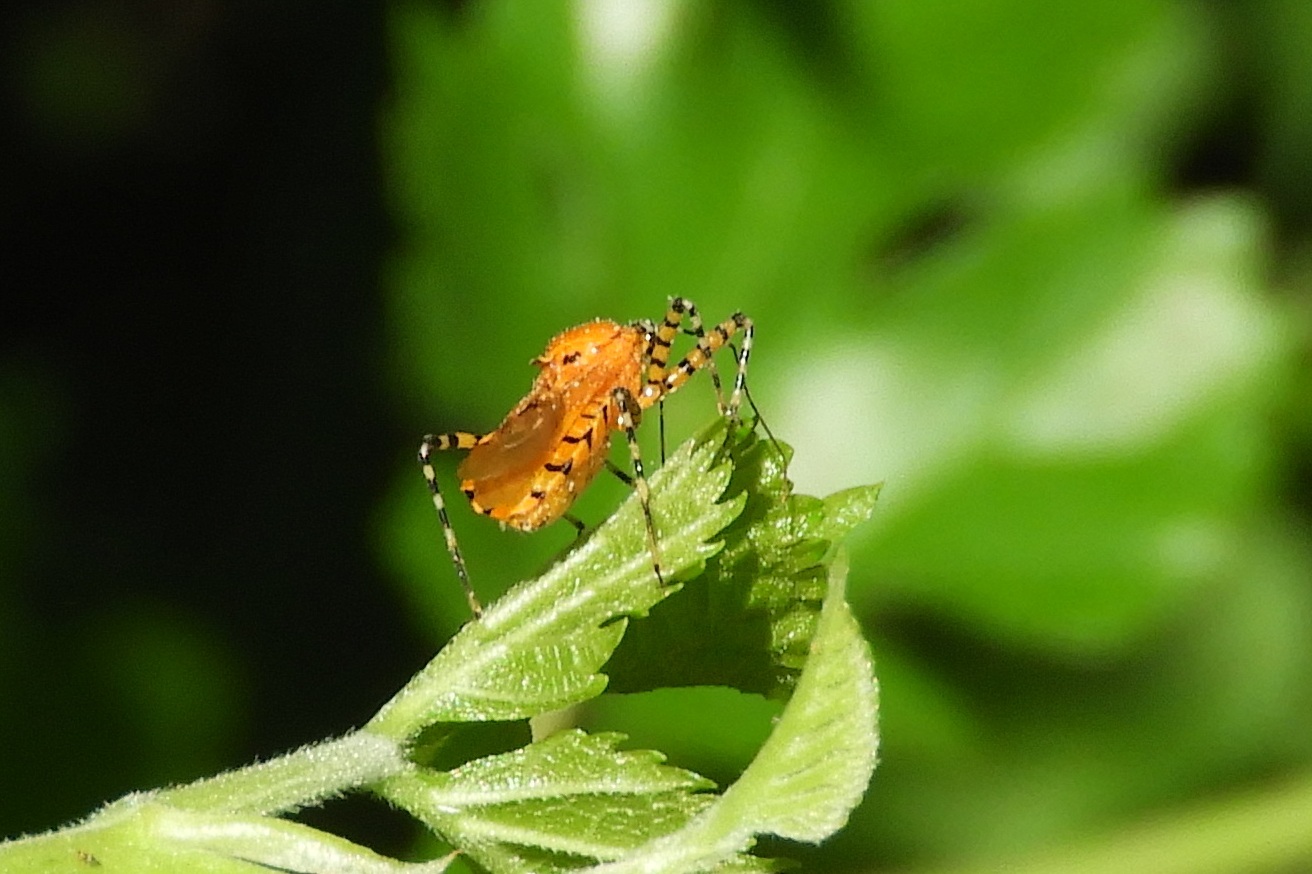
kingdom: Animalia
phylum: Arthropoda
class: Insecta
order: Hemiptera
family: Reduviidae
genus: Pselliopus
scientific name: Pselliopus barberi
